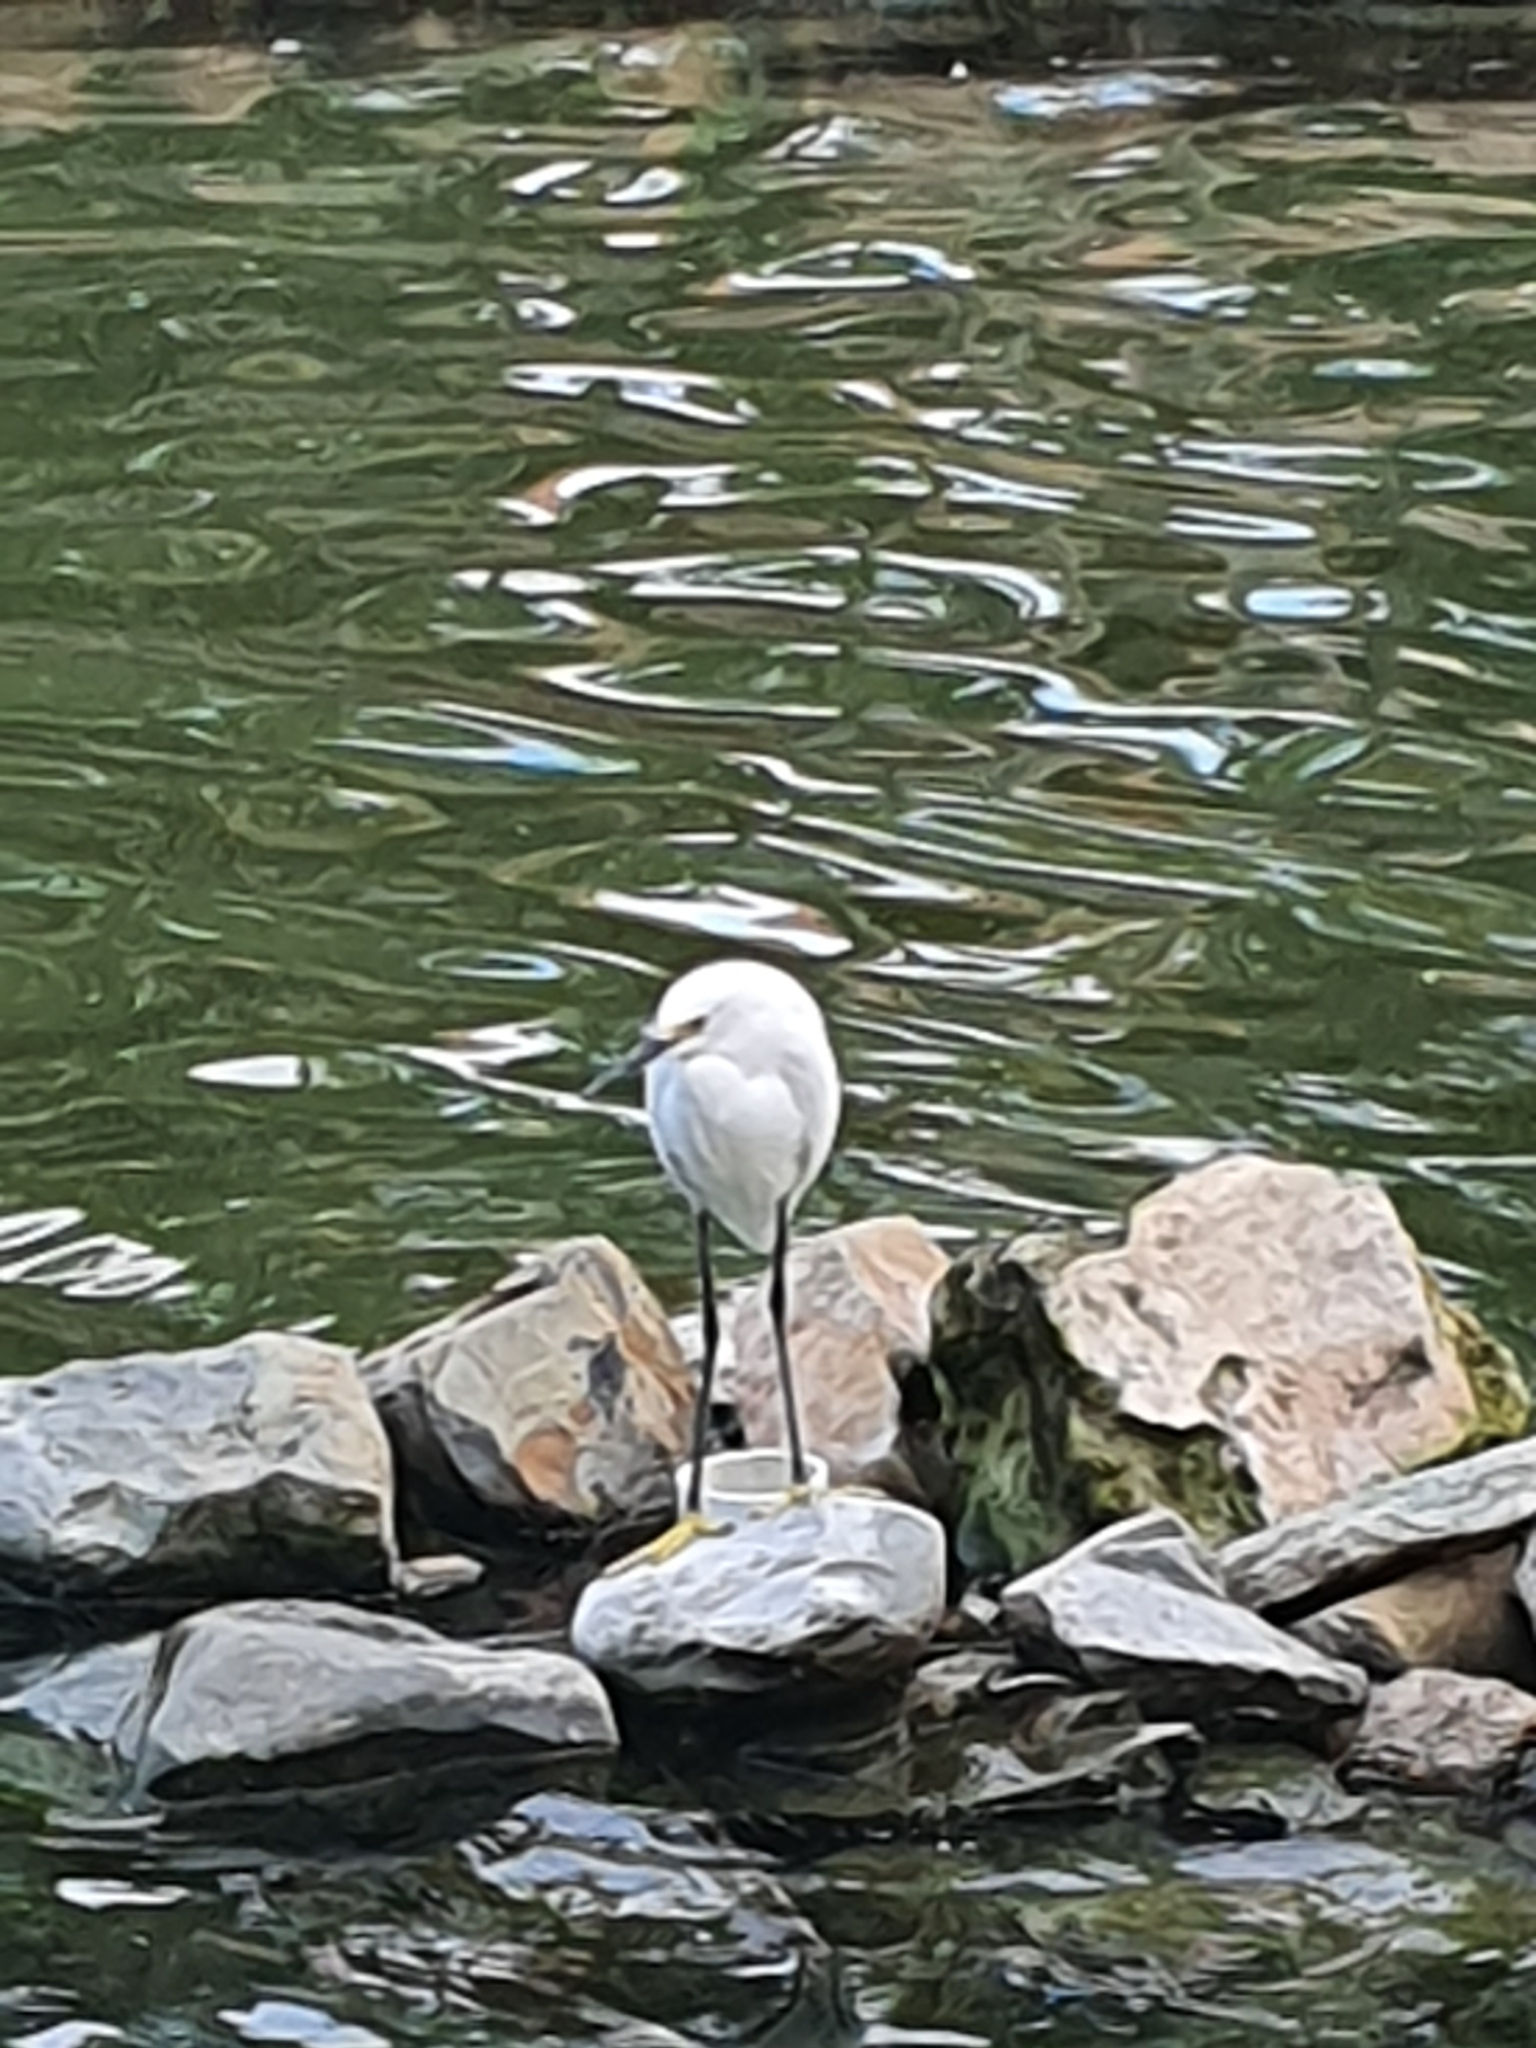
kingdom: Animalia
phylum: Chordata
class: Aves
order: Pelecaniformes
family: Ardeidae
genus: Egretta
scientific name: Egretta thula
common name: Snowy egret
